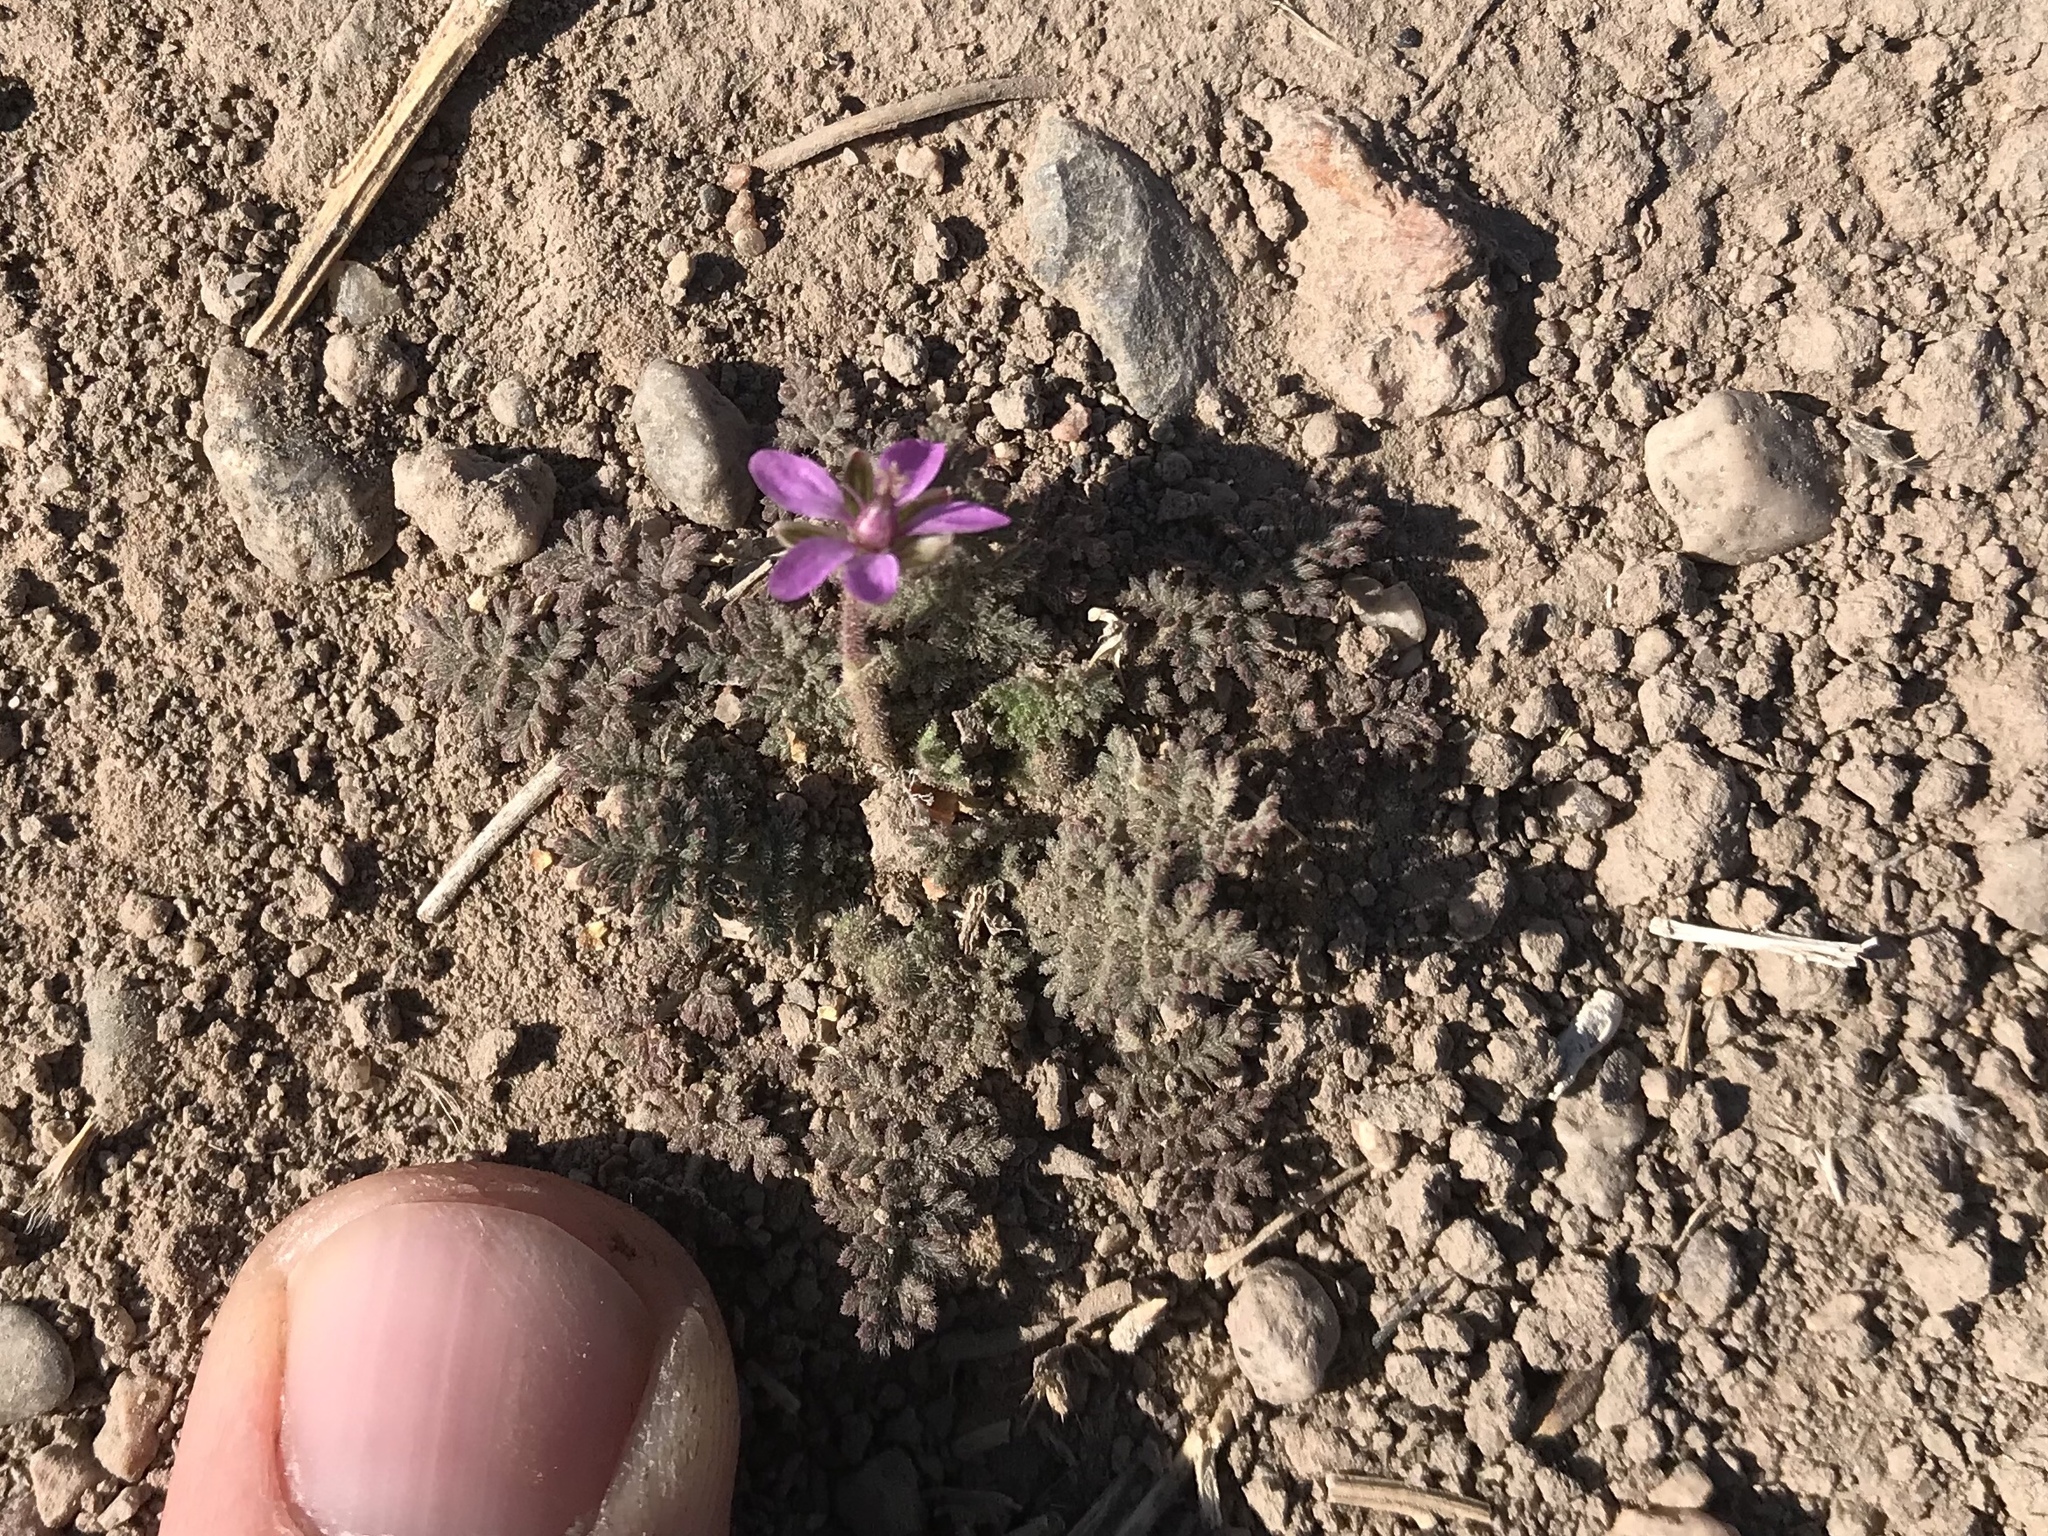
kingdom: Plantae
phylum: Tracheophyta
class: Magnoliopsida
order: Geraniales
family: Geraniaceae
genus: Erodium
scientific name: Erodium cicutarium
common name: Common stork's-bill
